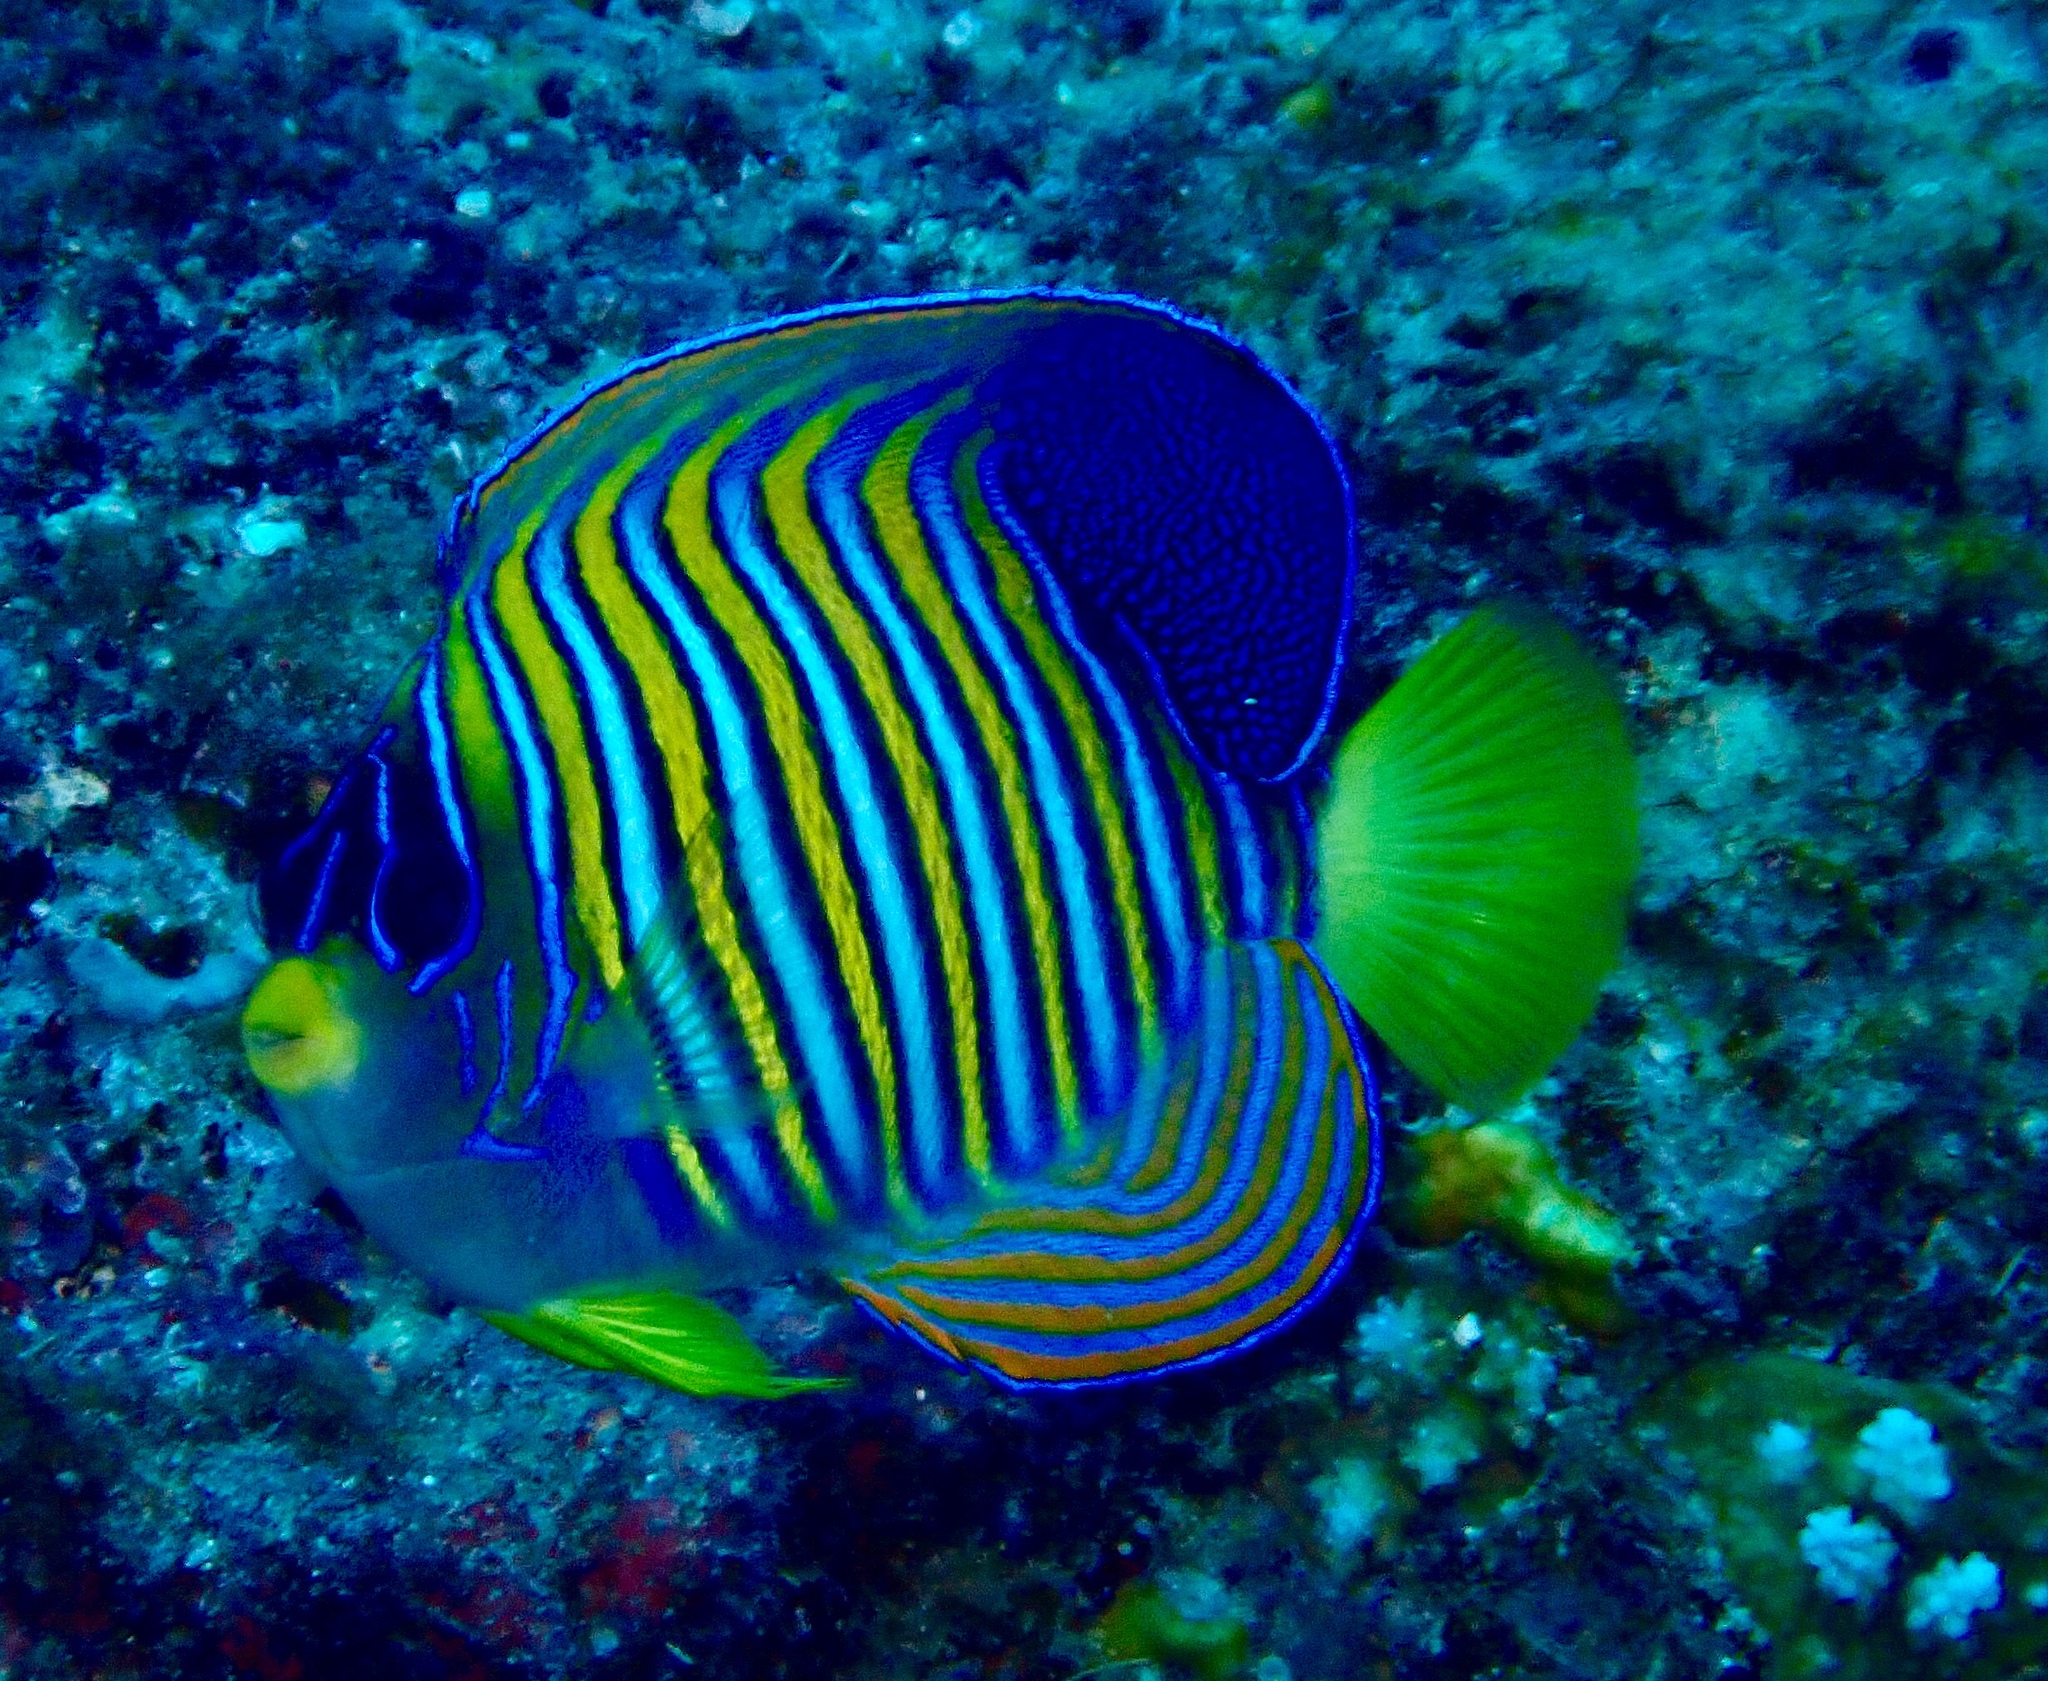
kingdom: Animalia
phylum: Chordata
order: Perciformes
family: Pomacanthidae
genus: Pygoplites
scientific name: Pygoplites diacanthus
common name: Regal angelfish
